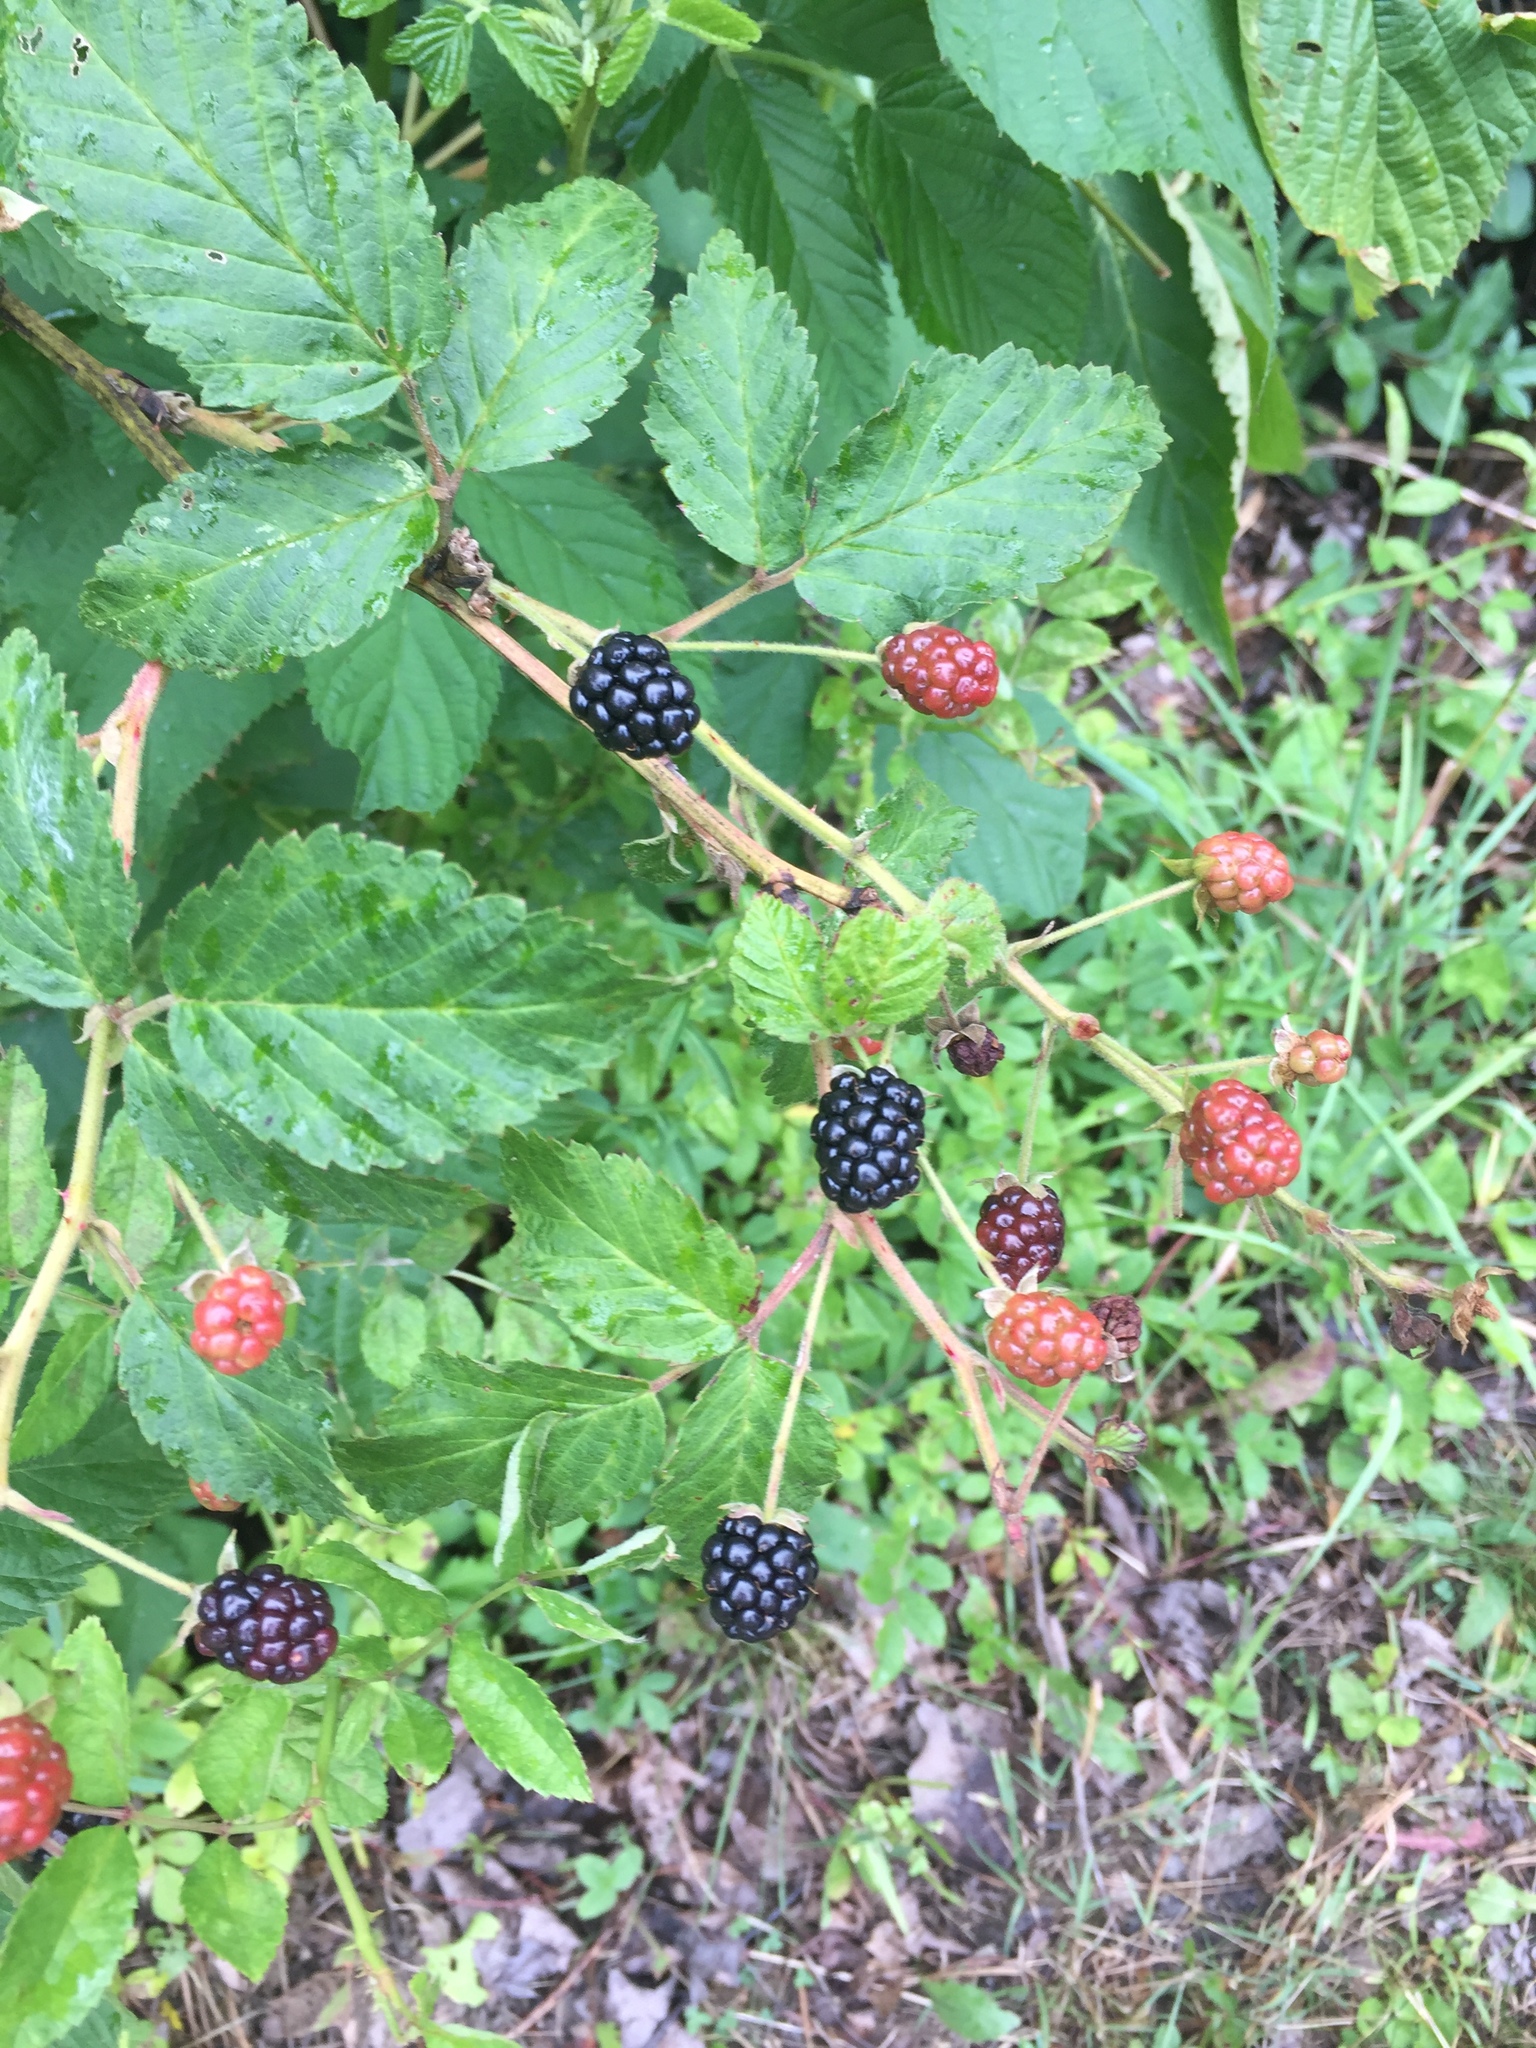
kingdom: Plantae
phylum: Tracheophyta
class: Magnoliopsida
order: Rosales
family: Rosaceae
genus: Rubus
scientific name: Rubus allegheniensis
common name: Allegheny blackberry
